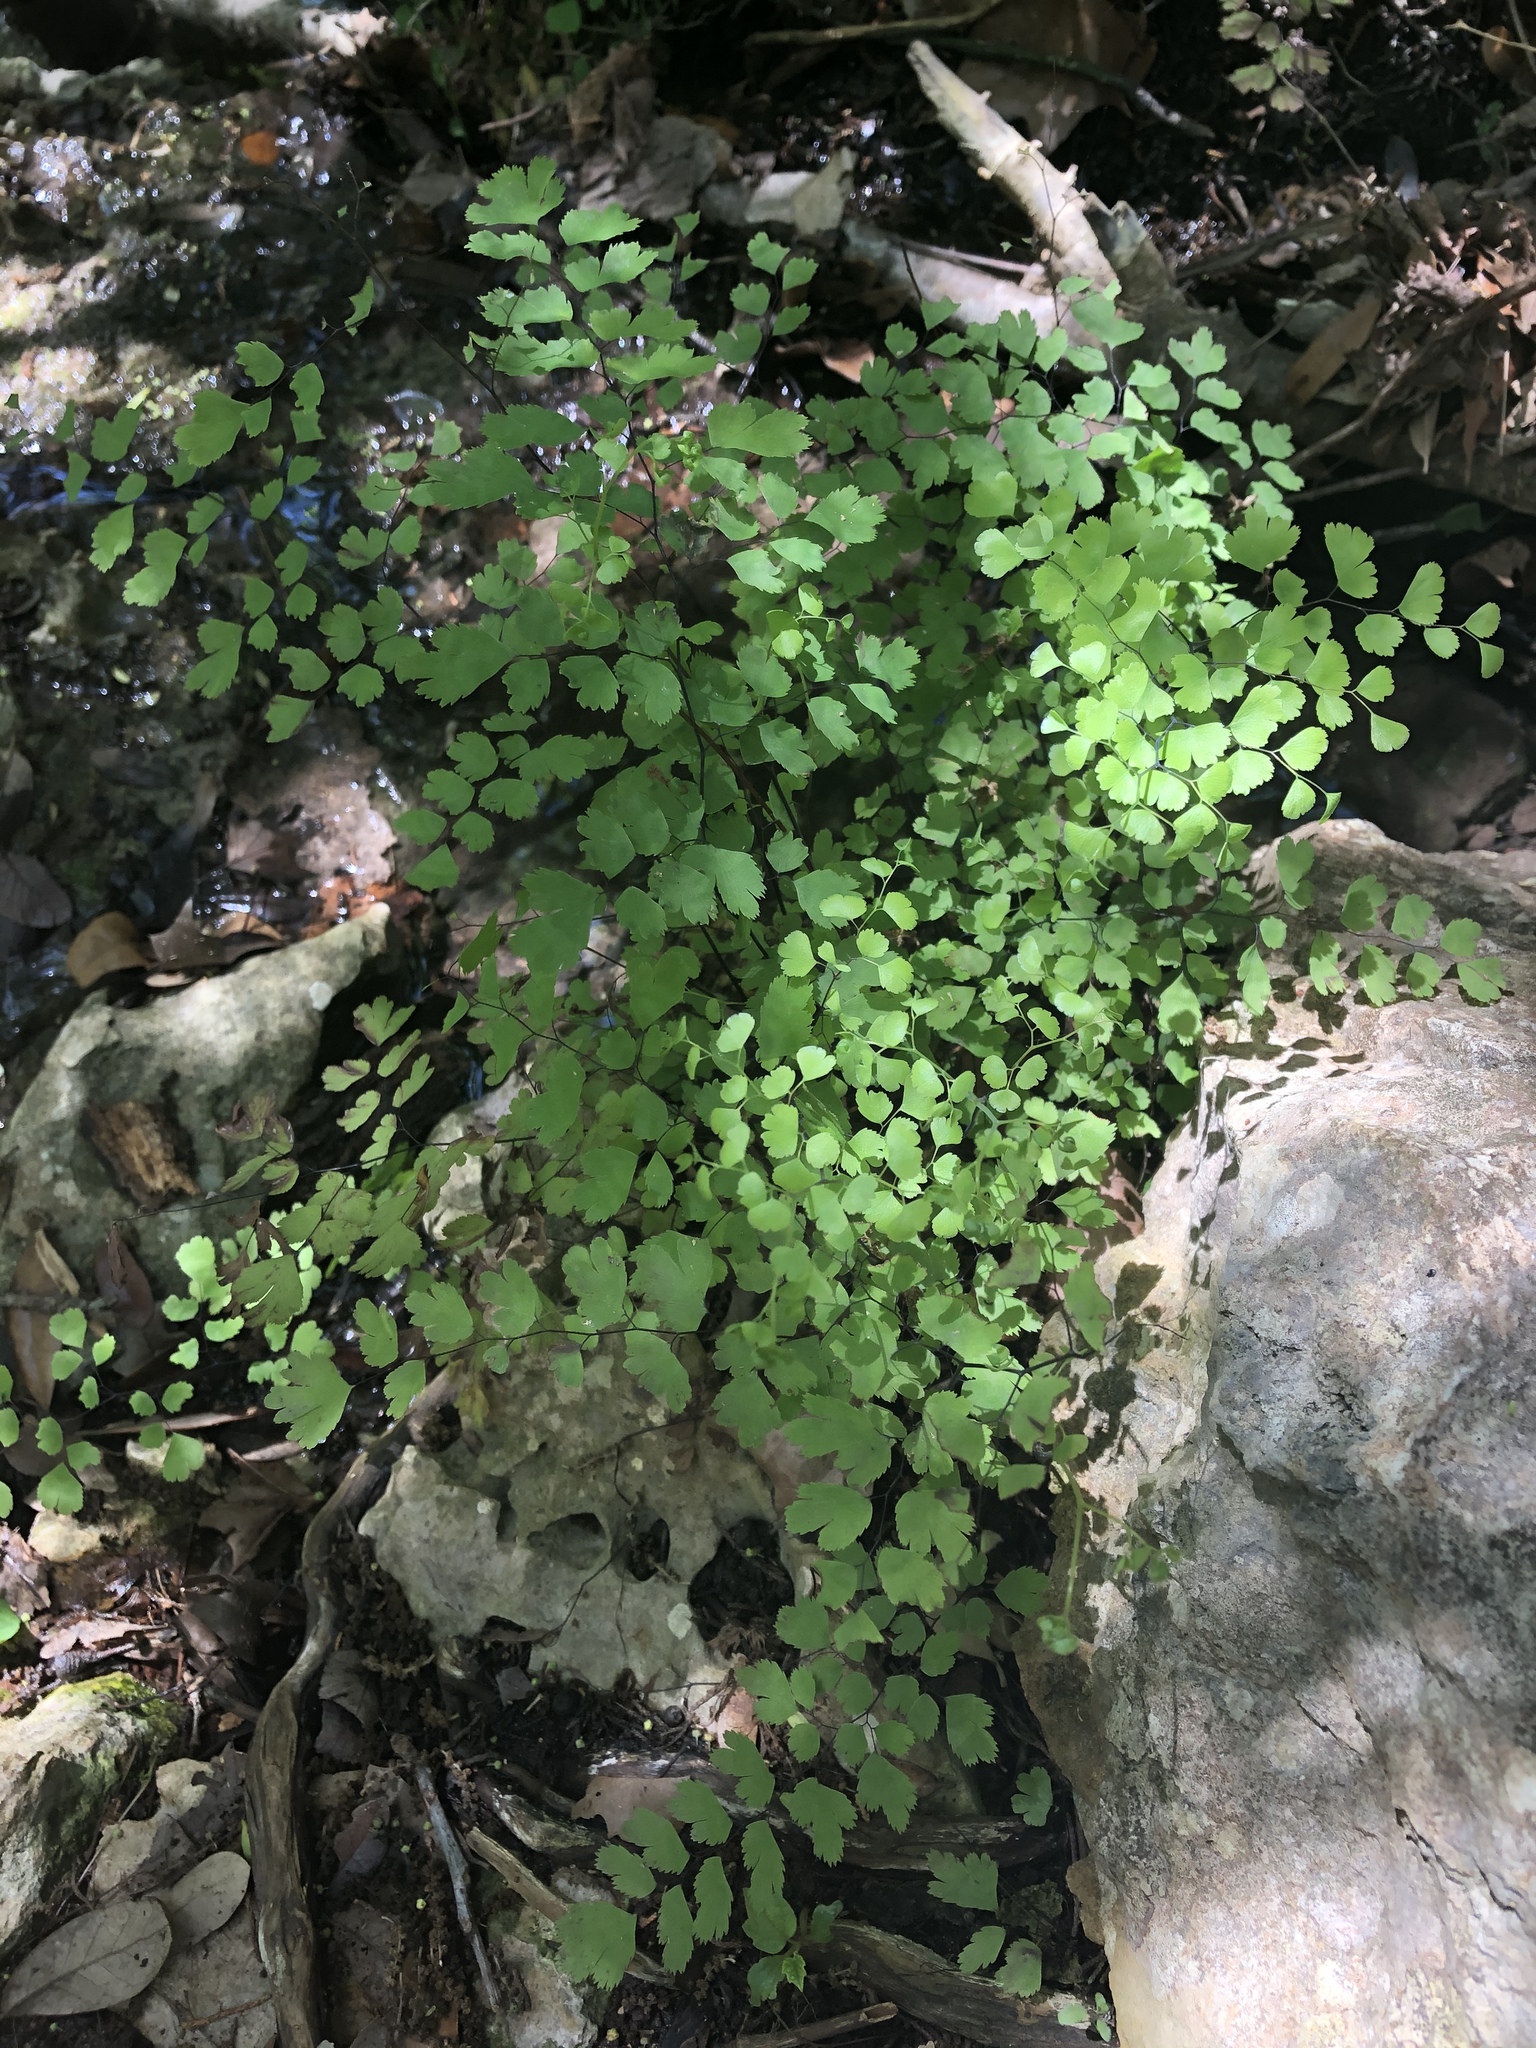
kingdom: Plantae
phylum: Tracheophyta
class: Polypodiopsida
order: Polypodiales
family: Pteridaceae
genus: Adiantum
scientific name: Adiantum capillus-veneris
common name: Maidenhair fern
